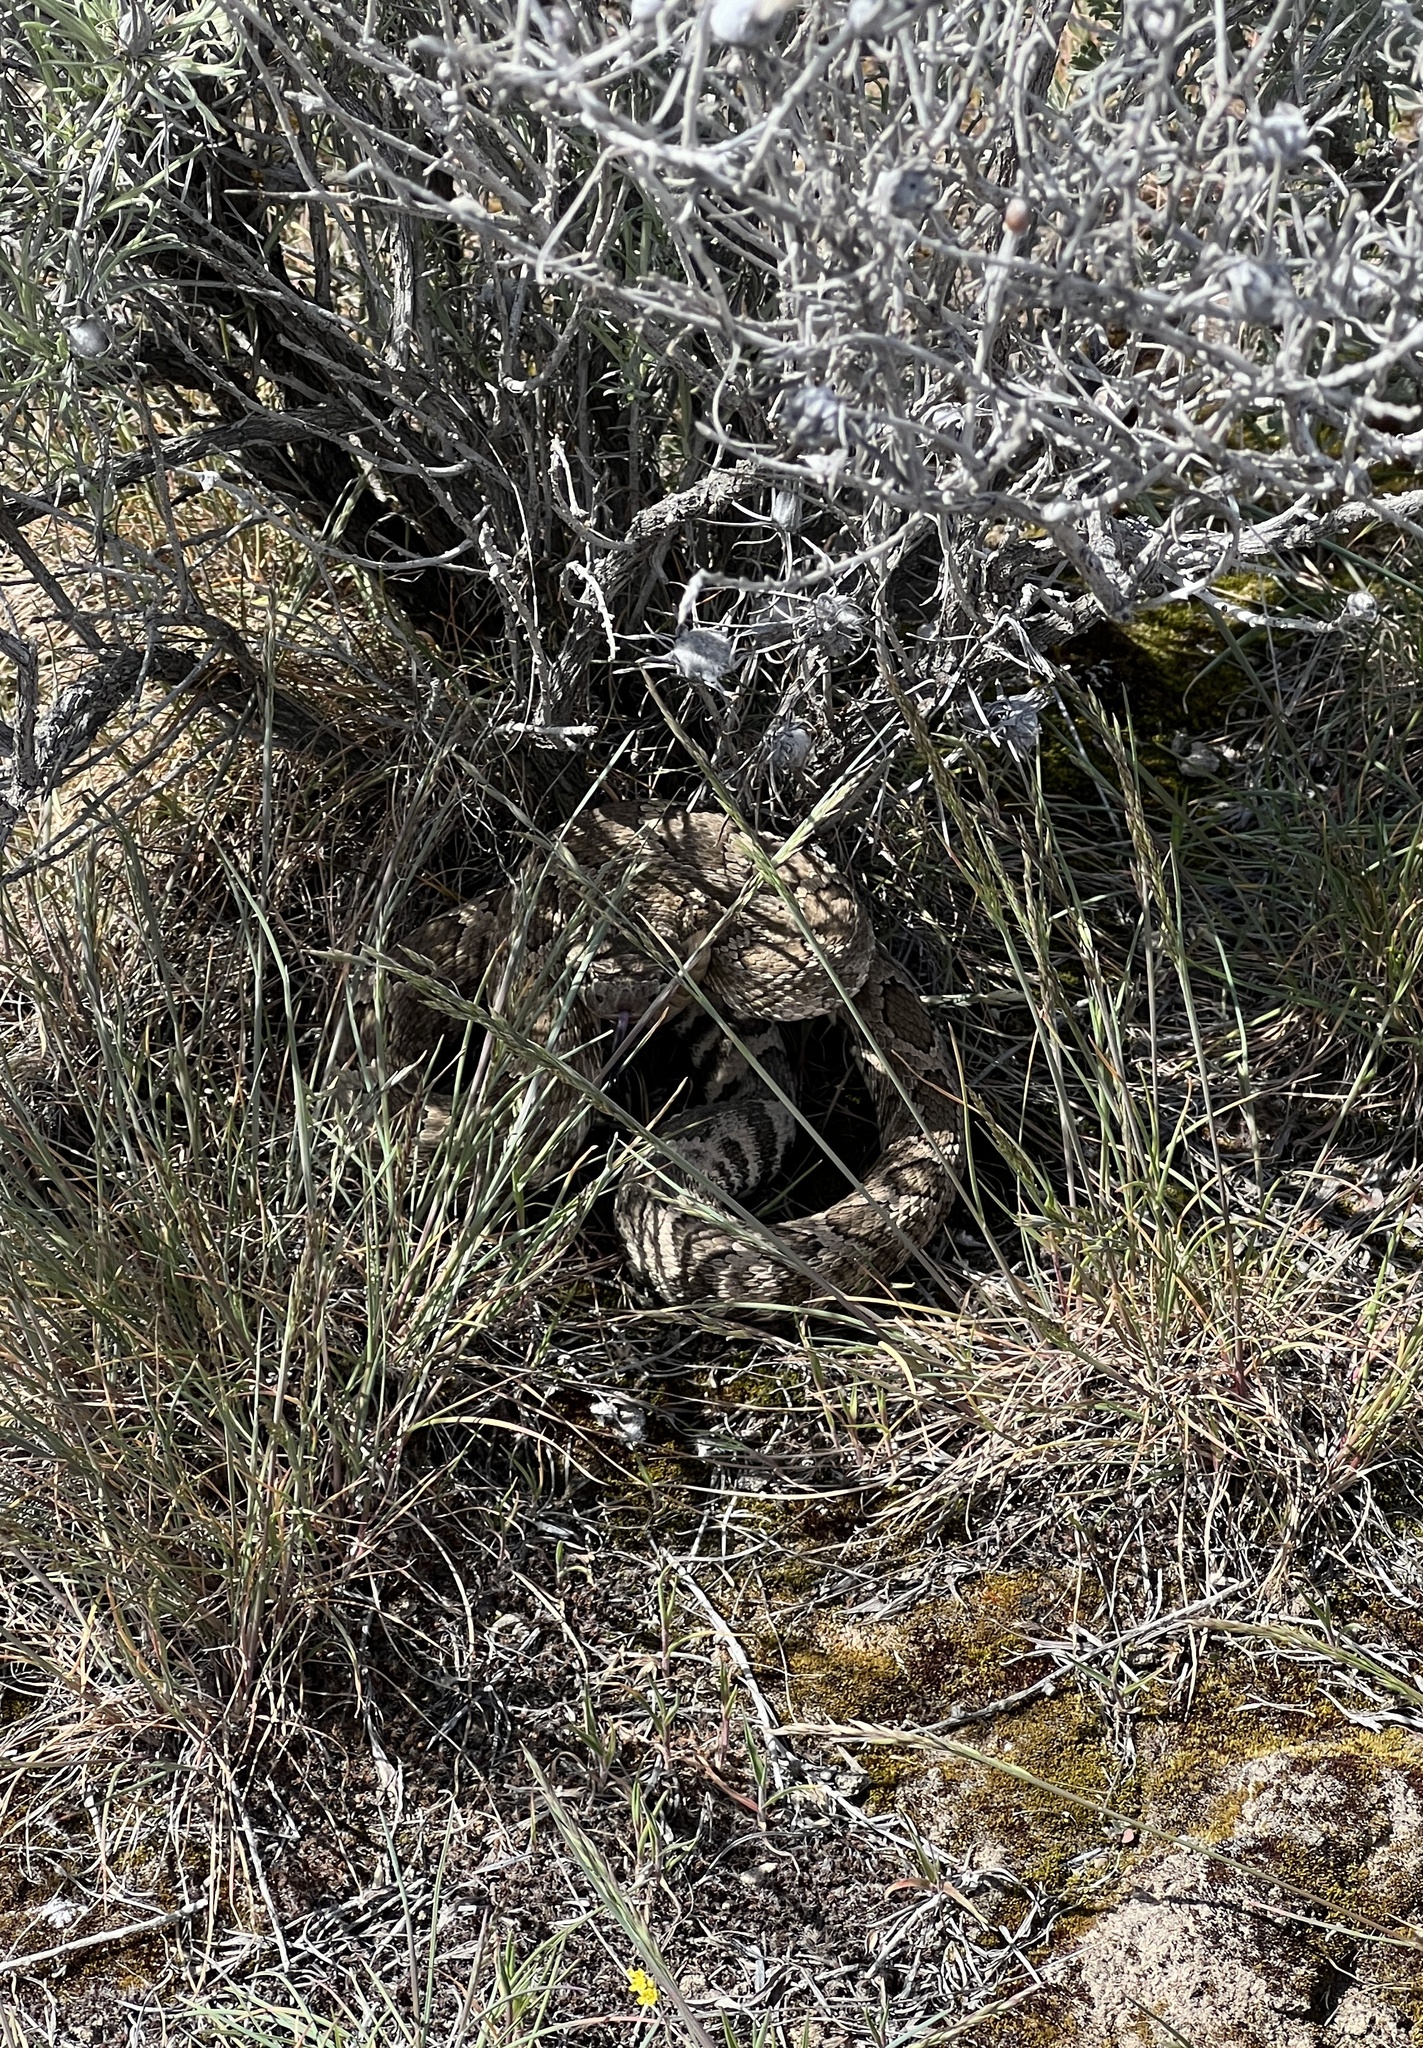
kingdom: Animalia
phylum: Chordata
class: Squamata
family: Viperidae
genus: Crotalus
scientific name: Crotalus oreganus
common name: Abyssus
